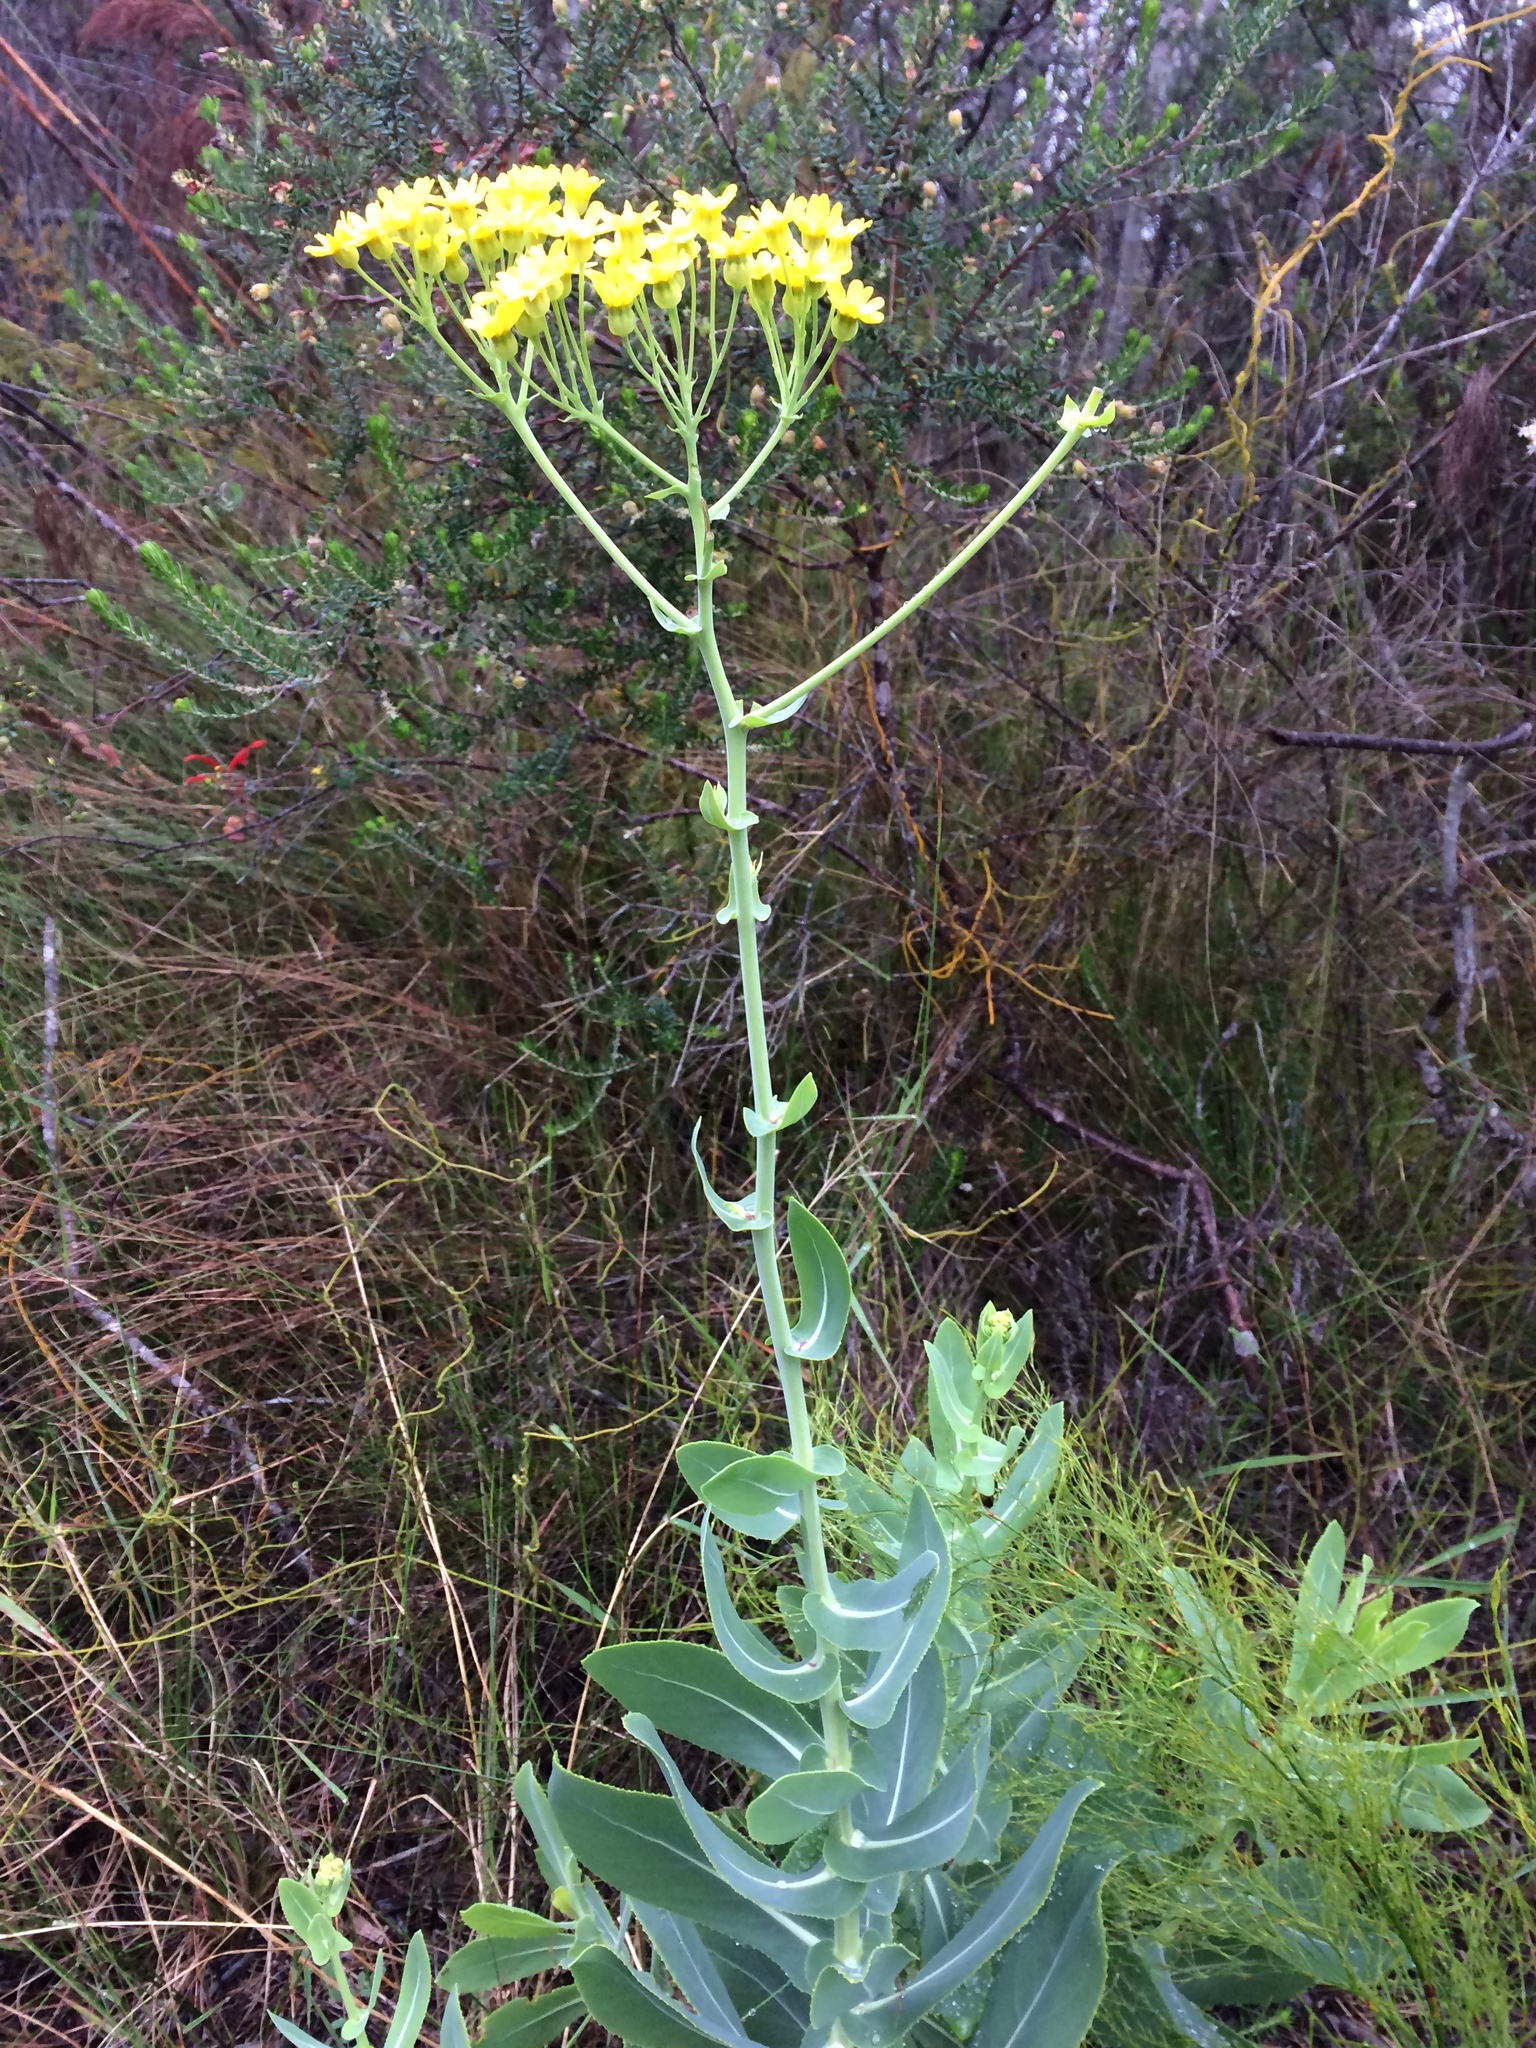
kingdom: Plantae
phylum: Tracheophyta
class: Magnoliopsida
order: Asterales
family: Asteraceae
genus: Othonna
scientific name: Othonna parviflora
